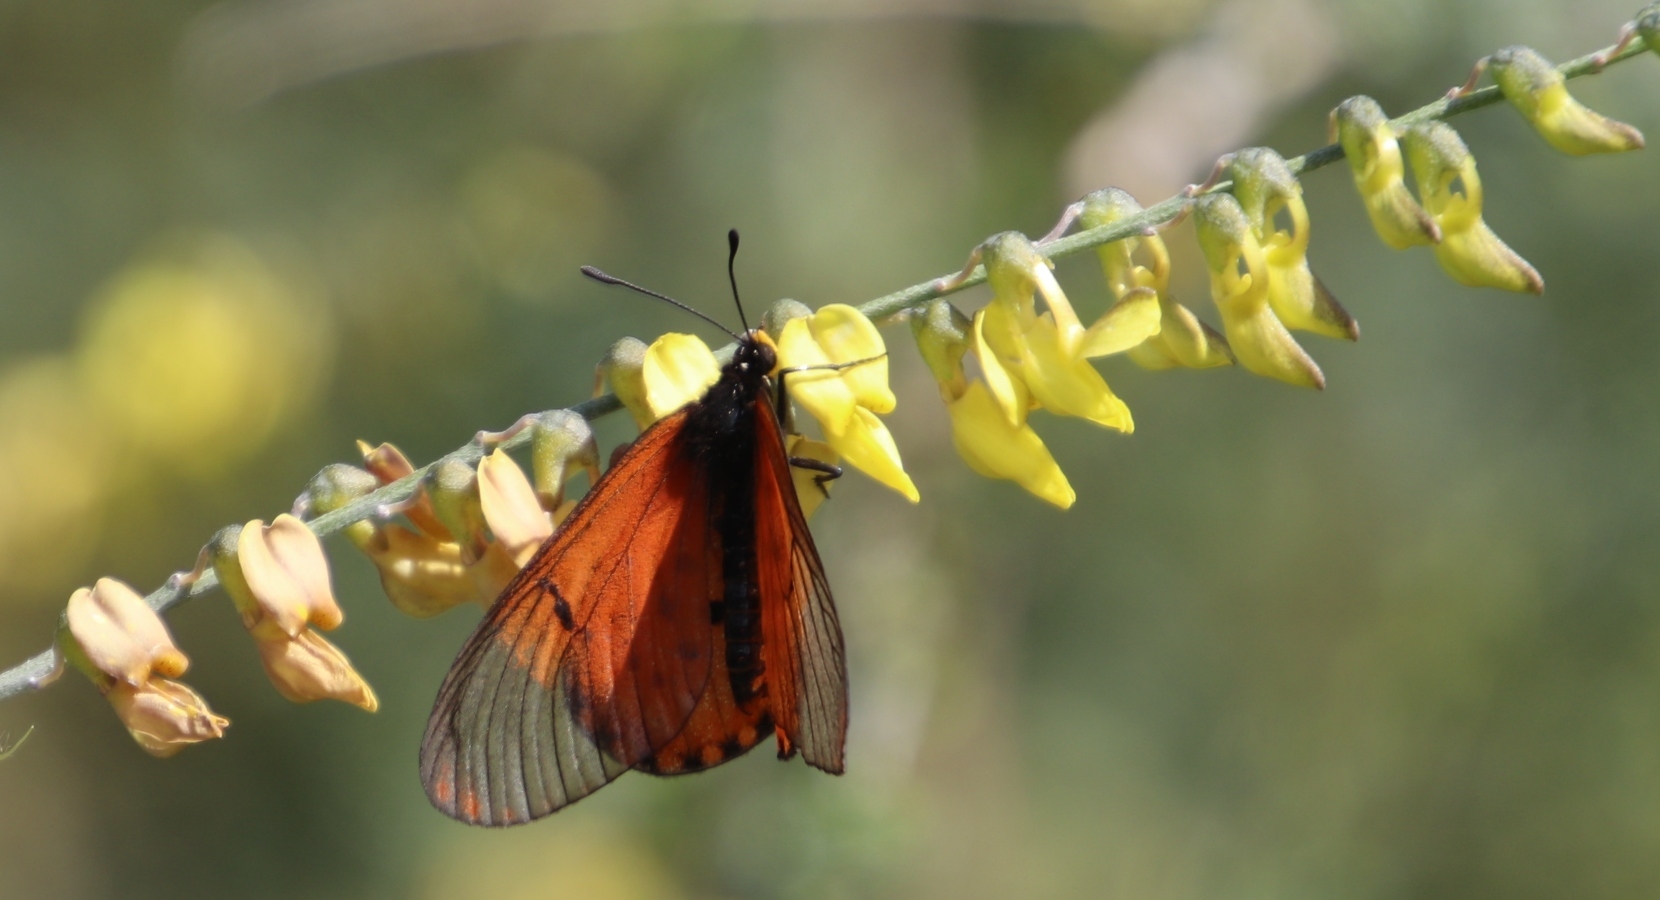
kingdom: Plantae
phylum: Tracheophyta
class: Magnoliopsida
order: Fabales
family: Fabaceae
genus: Wiborgia
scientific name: Wiborgia obcordata
